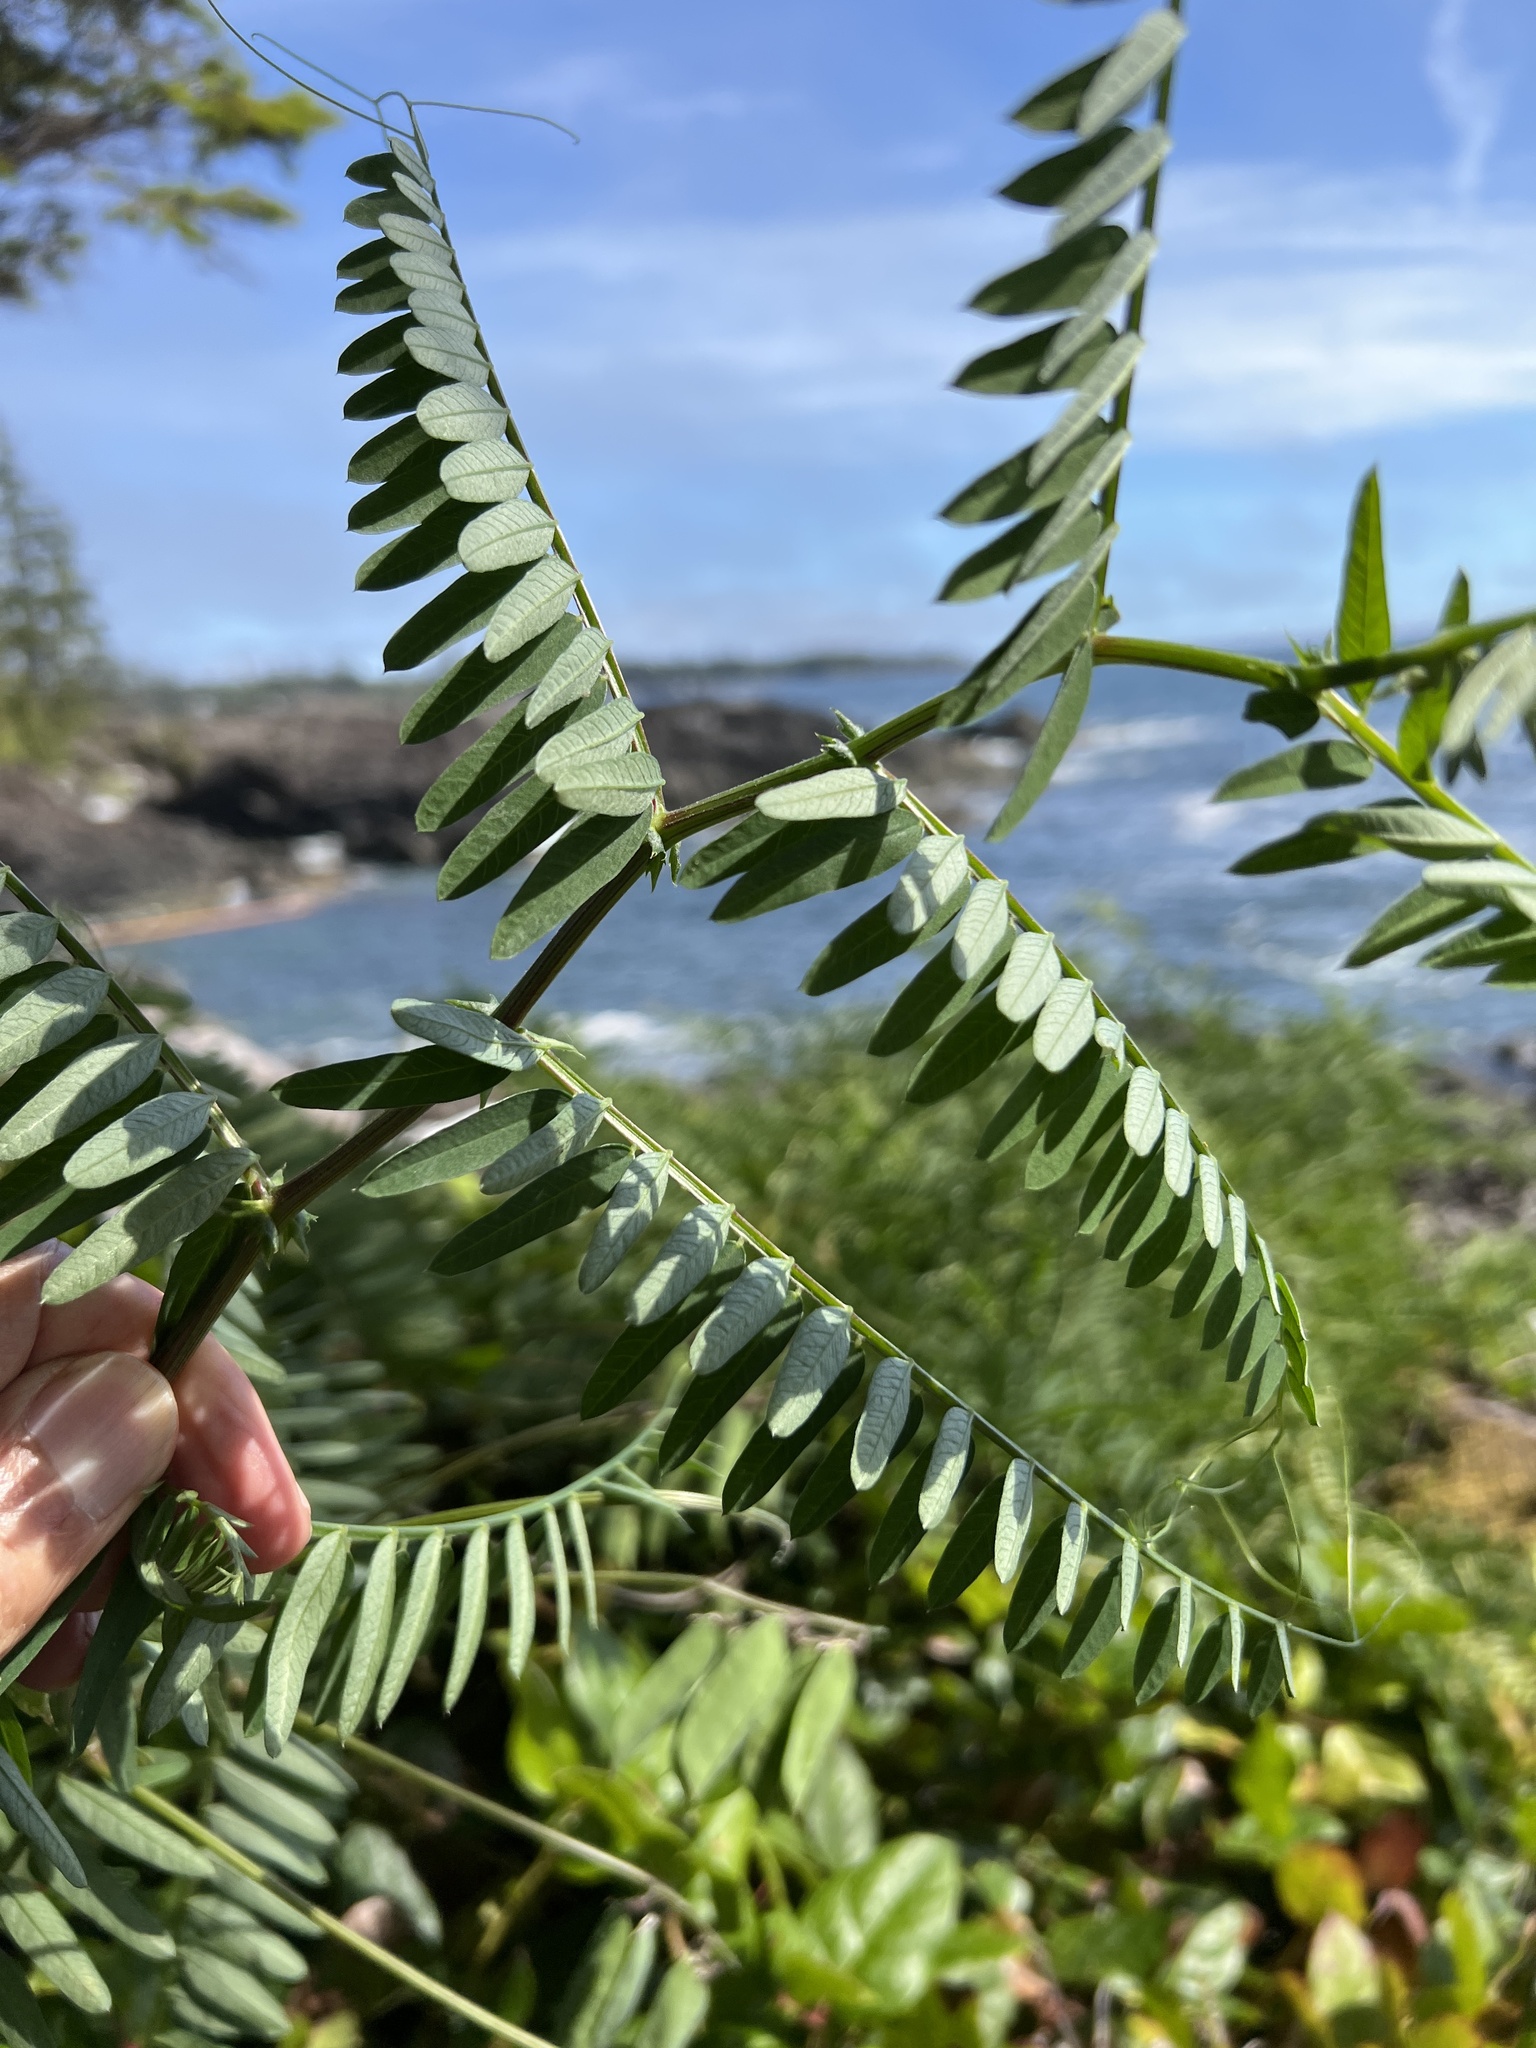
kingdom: Plantae
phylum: Tracheophyta
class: Magnoliopsida
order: Fabales
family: Fabaceae
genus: Vicia
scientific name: Vicia
